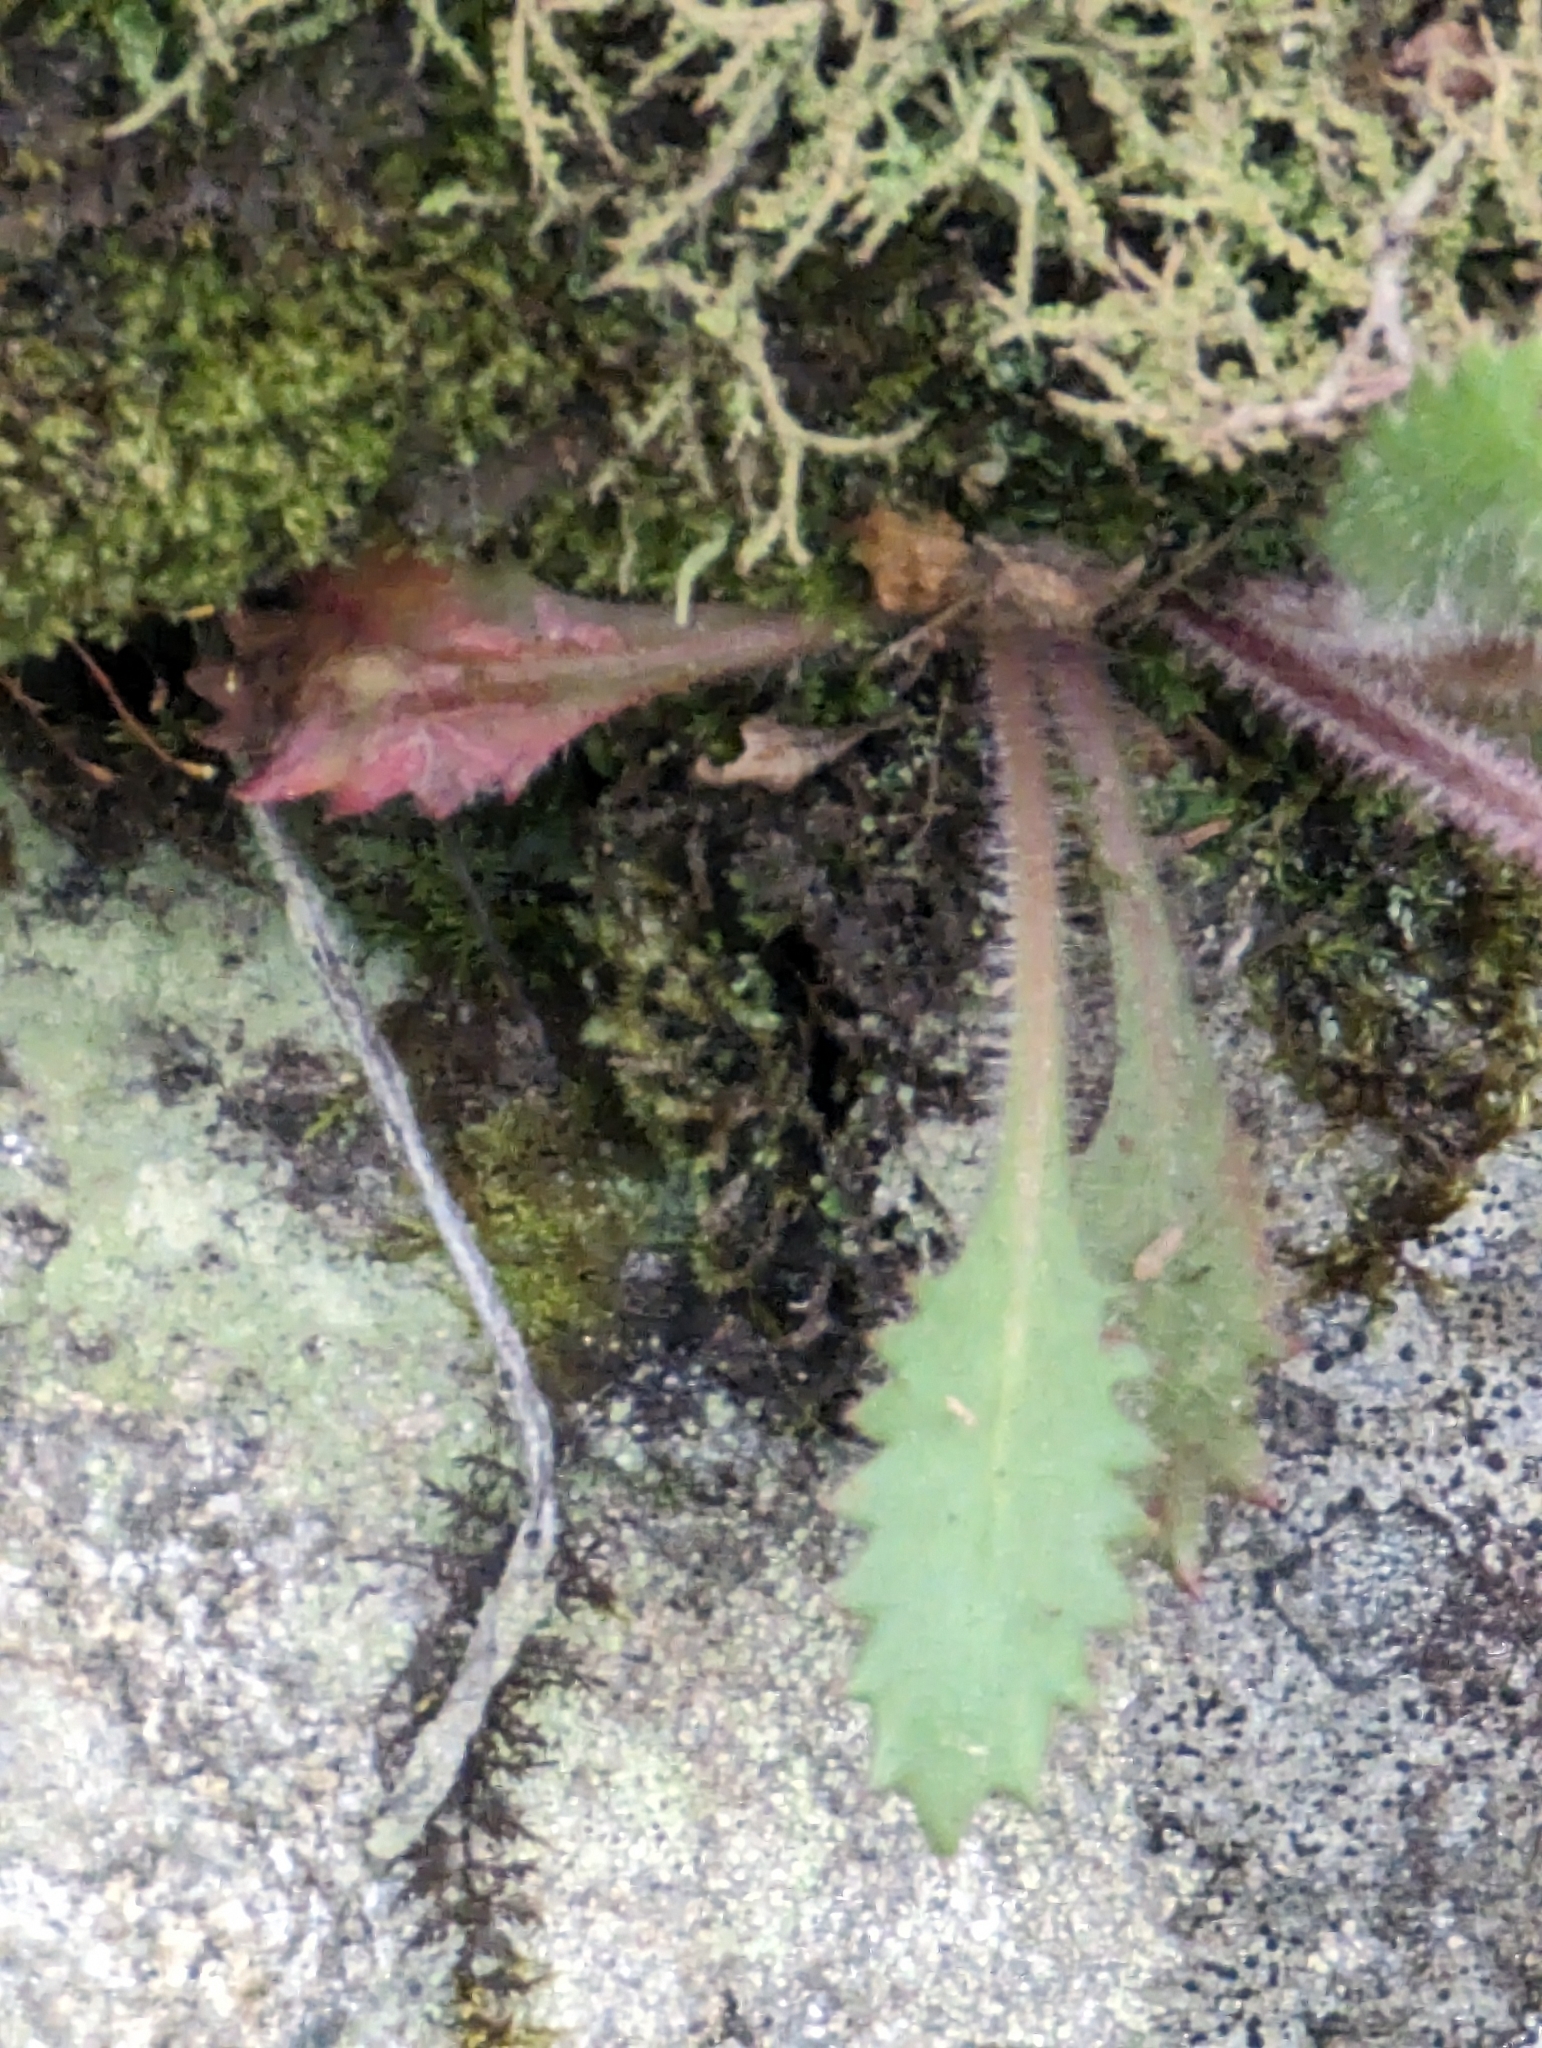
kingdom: Plantae
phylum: Tracheophyta
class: Magnoliopsida
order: Saxifragales
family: Saxifragaceae
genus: Micranthes
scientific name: Micranthes petiolaris
